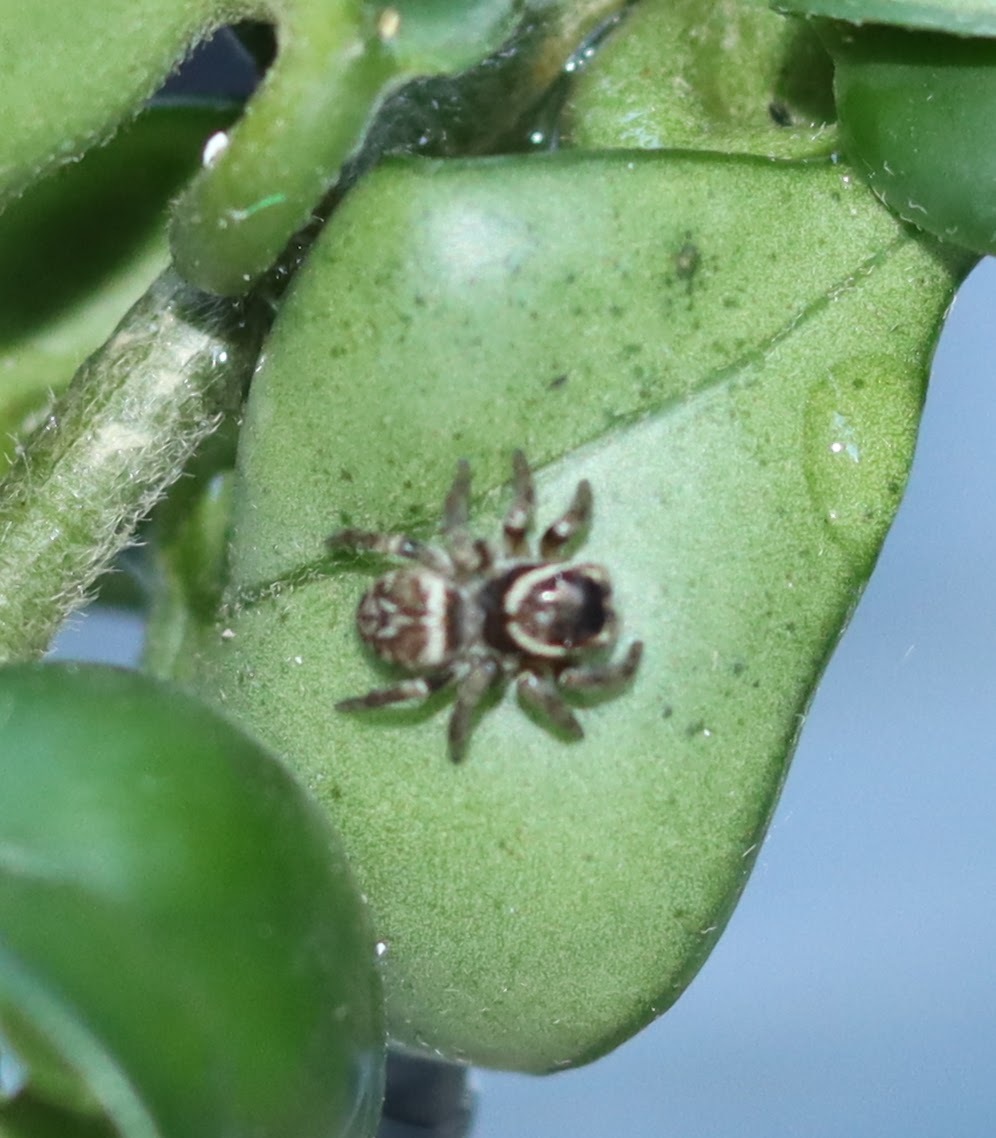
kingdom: Animalia
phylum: Arthropoda
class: Arachnida
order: Araneae
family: Salticidae
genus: Maratus
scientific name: Maratus griseus
